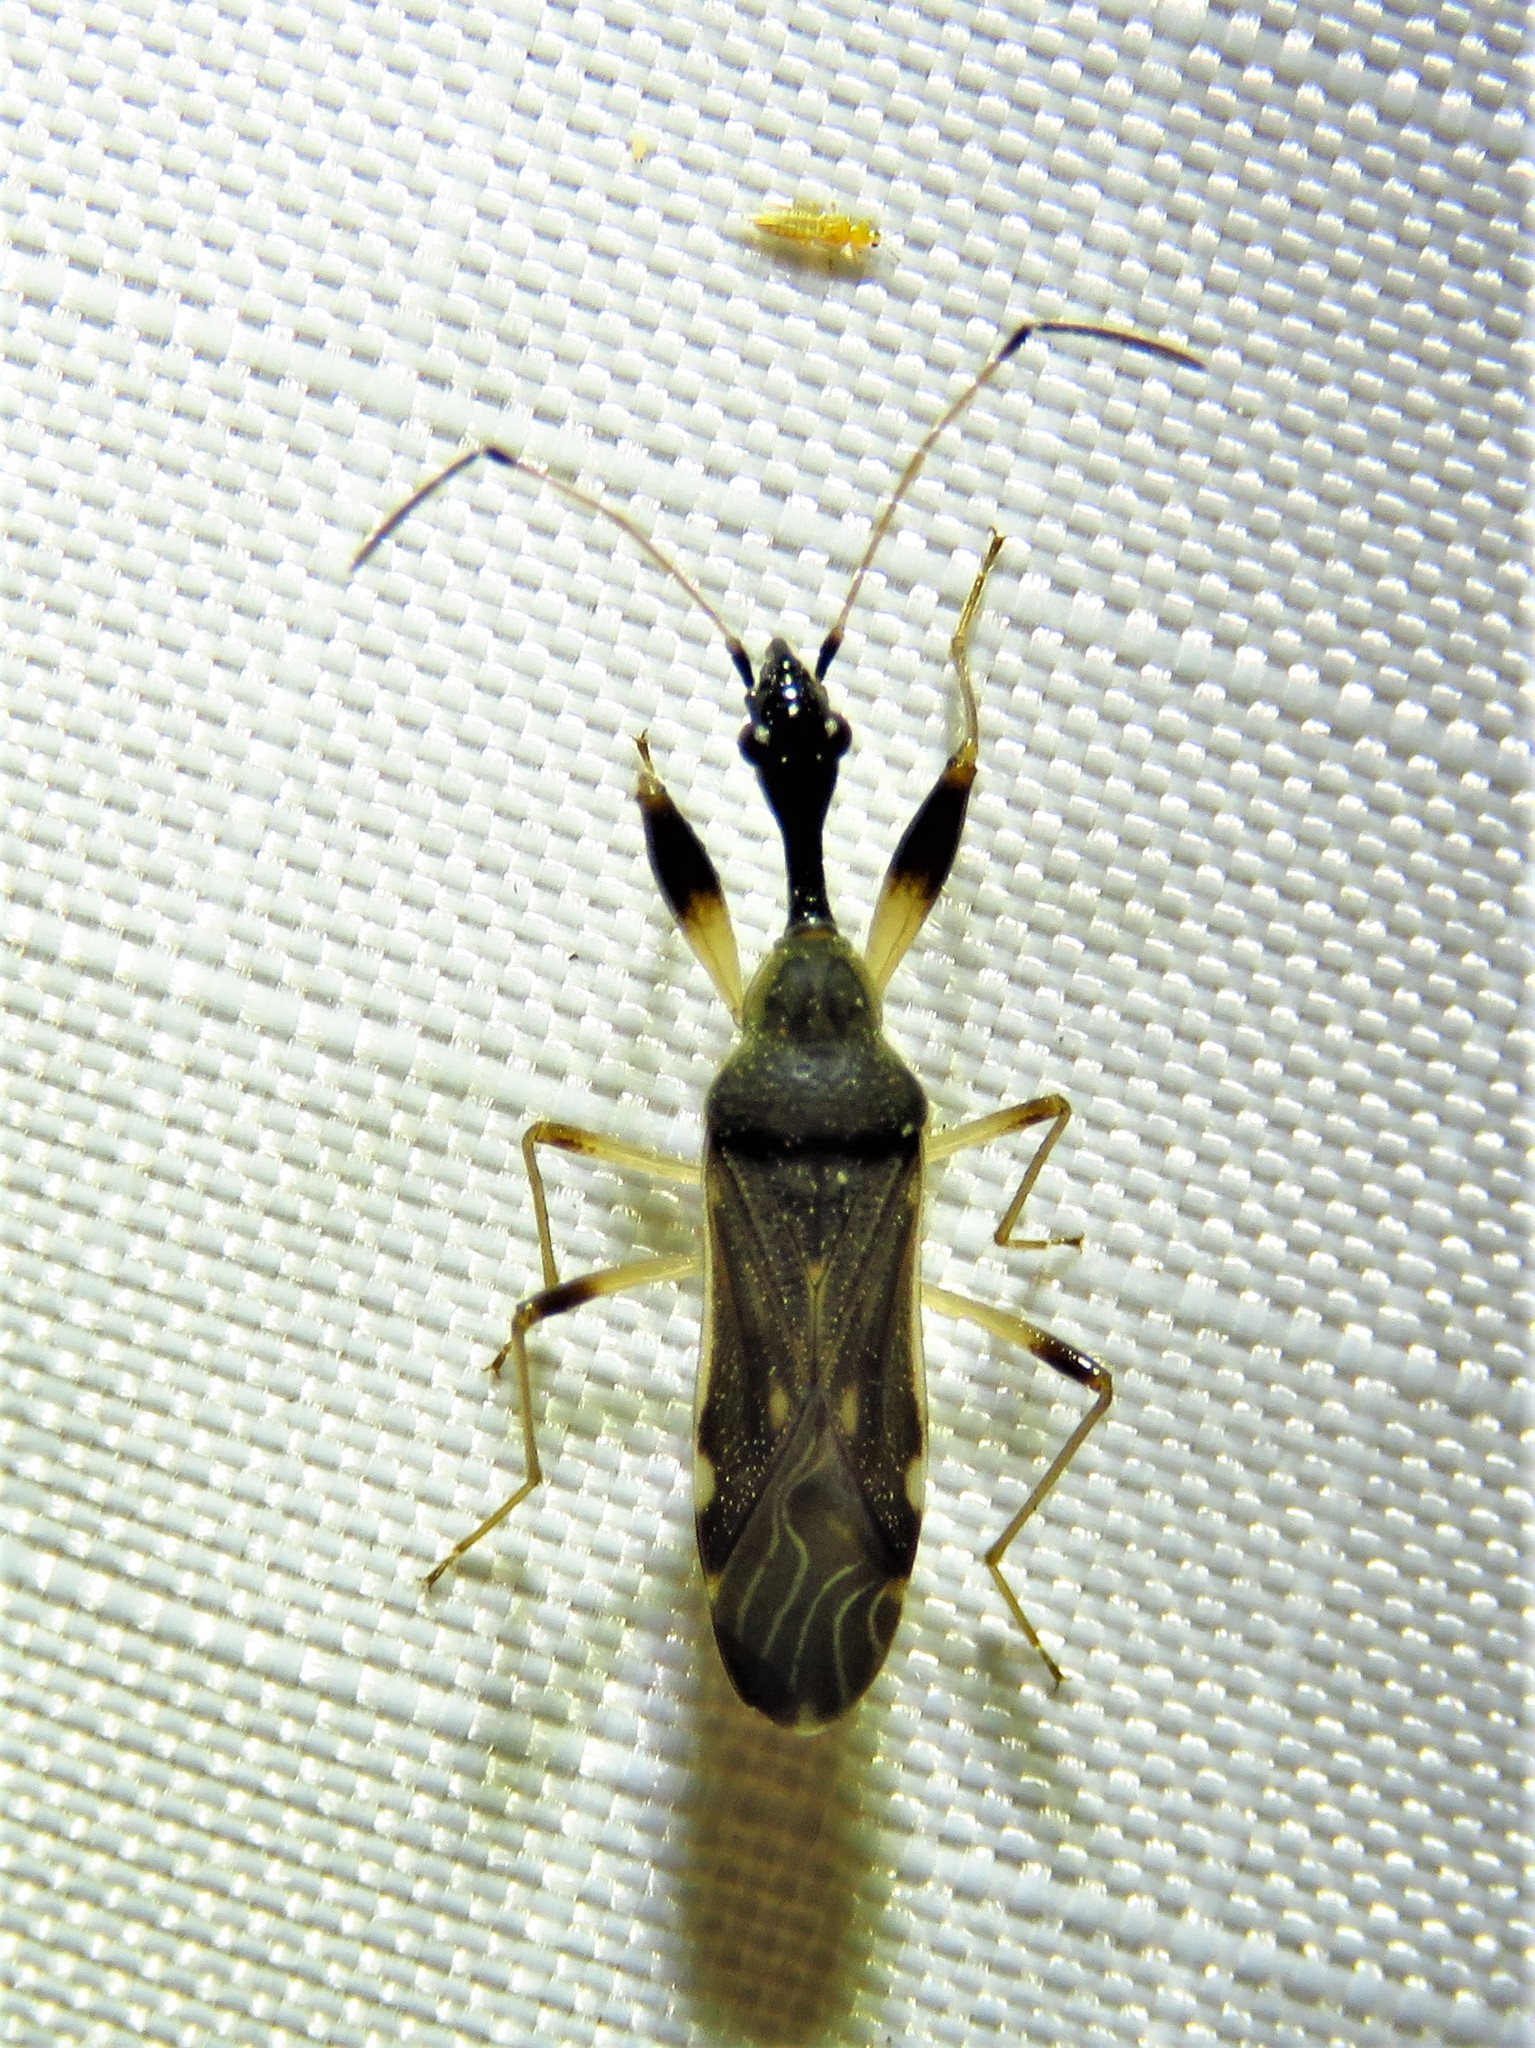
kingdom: Animalia
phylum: Arthropoda
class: Insecta
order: Hemiptera
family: Rhyparochromidae
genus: Myodocha
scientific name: Myodocha serripes
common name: Long-necked seed bug
